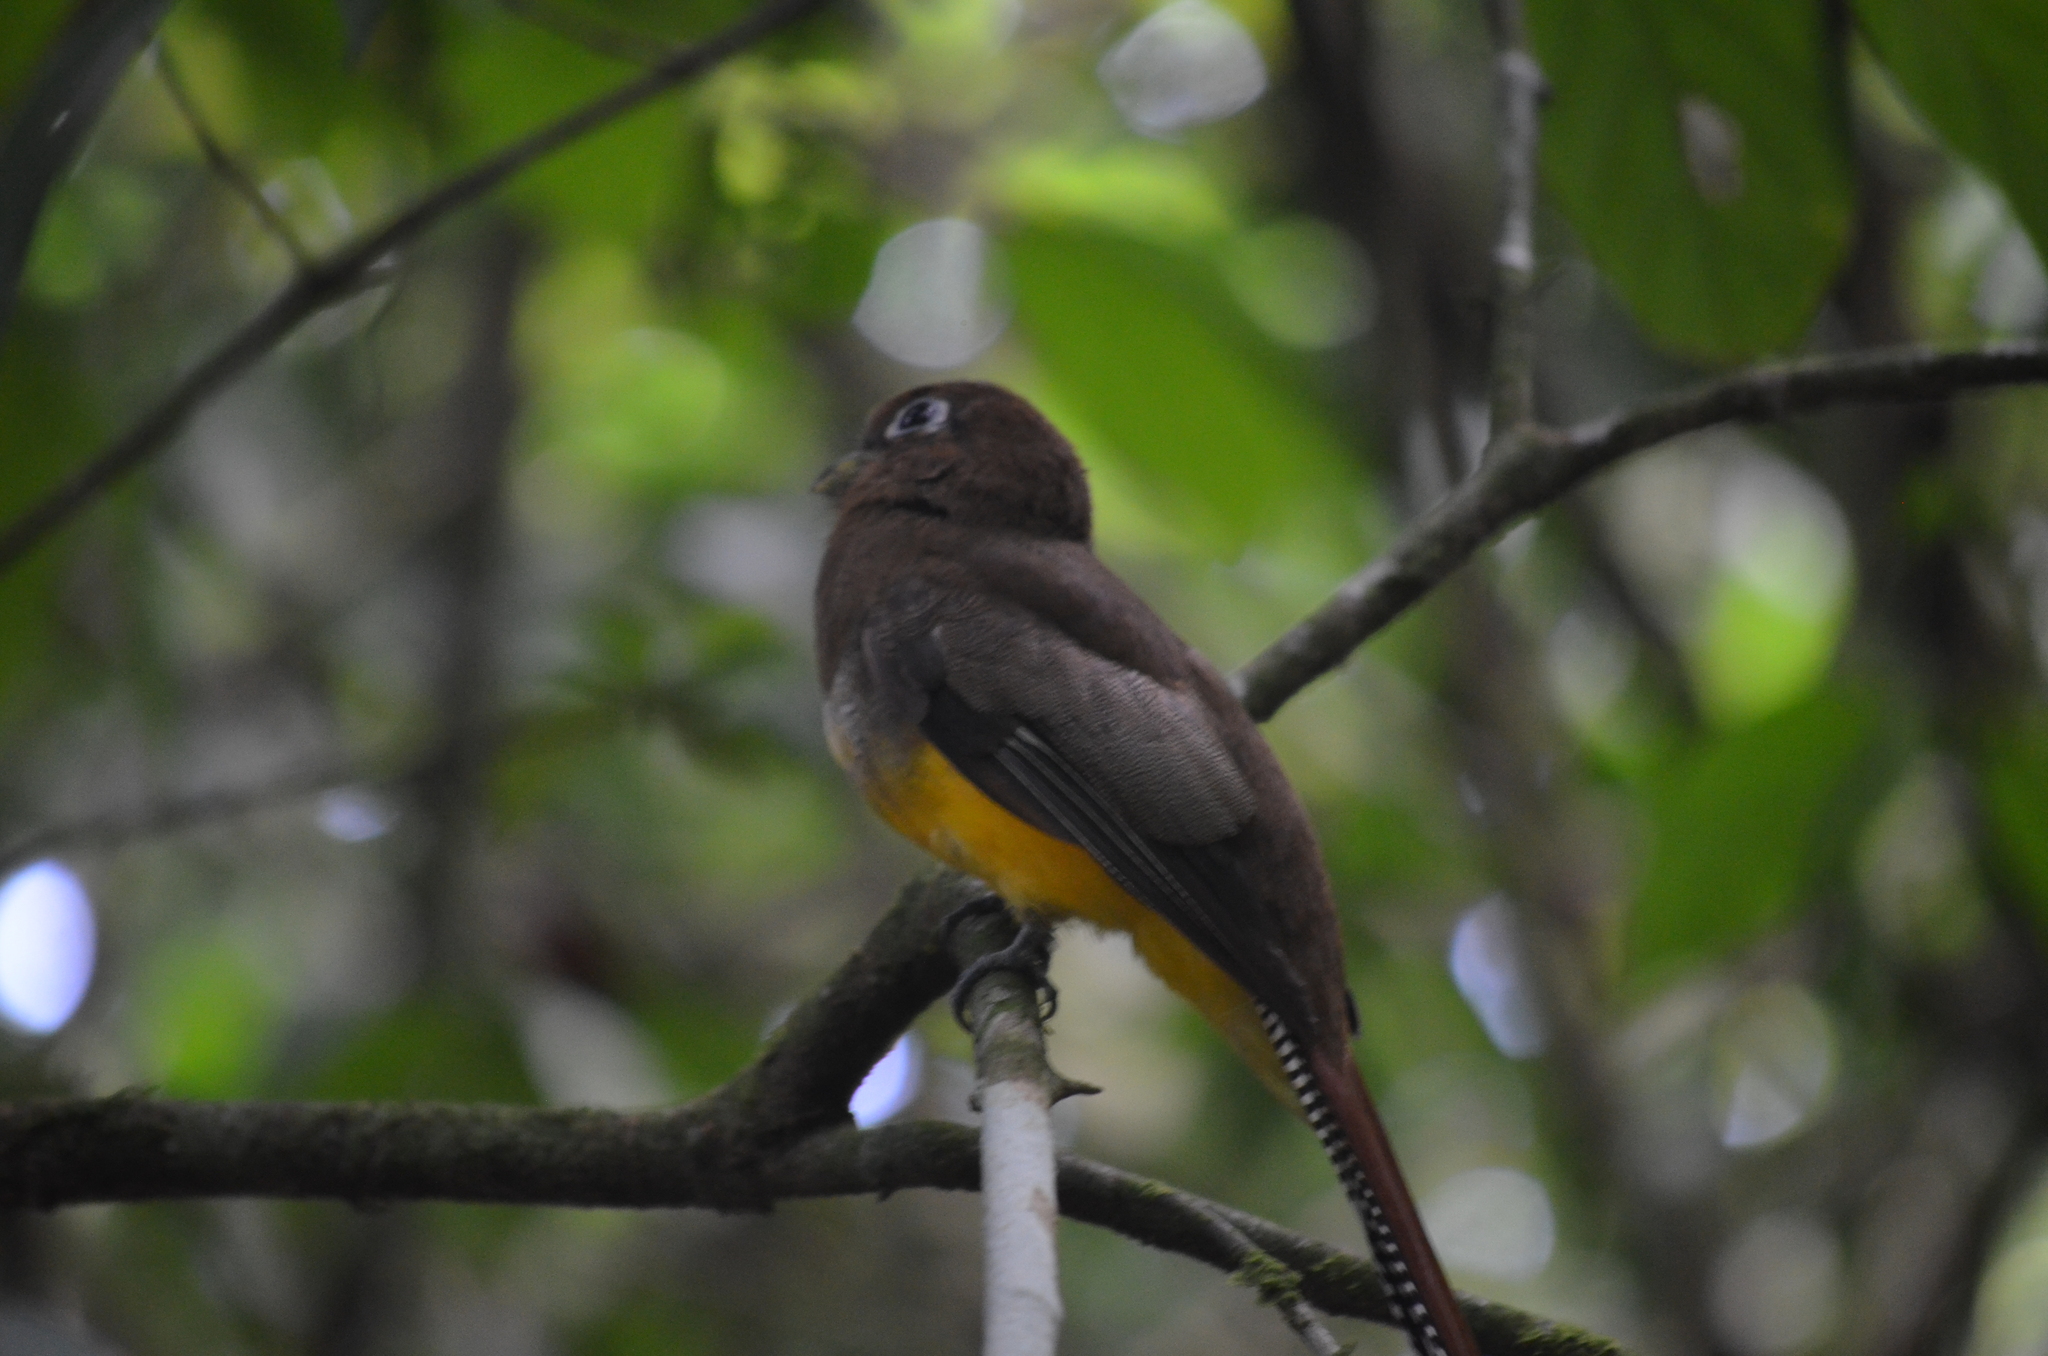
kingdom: Animalia
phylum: Chordata
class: Aves
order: Trogoniformes
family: Trogonidae
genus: Trogon
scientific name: Trogon rufus
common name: Black-throated trogon
